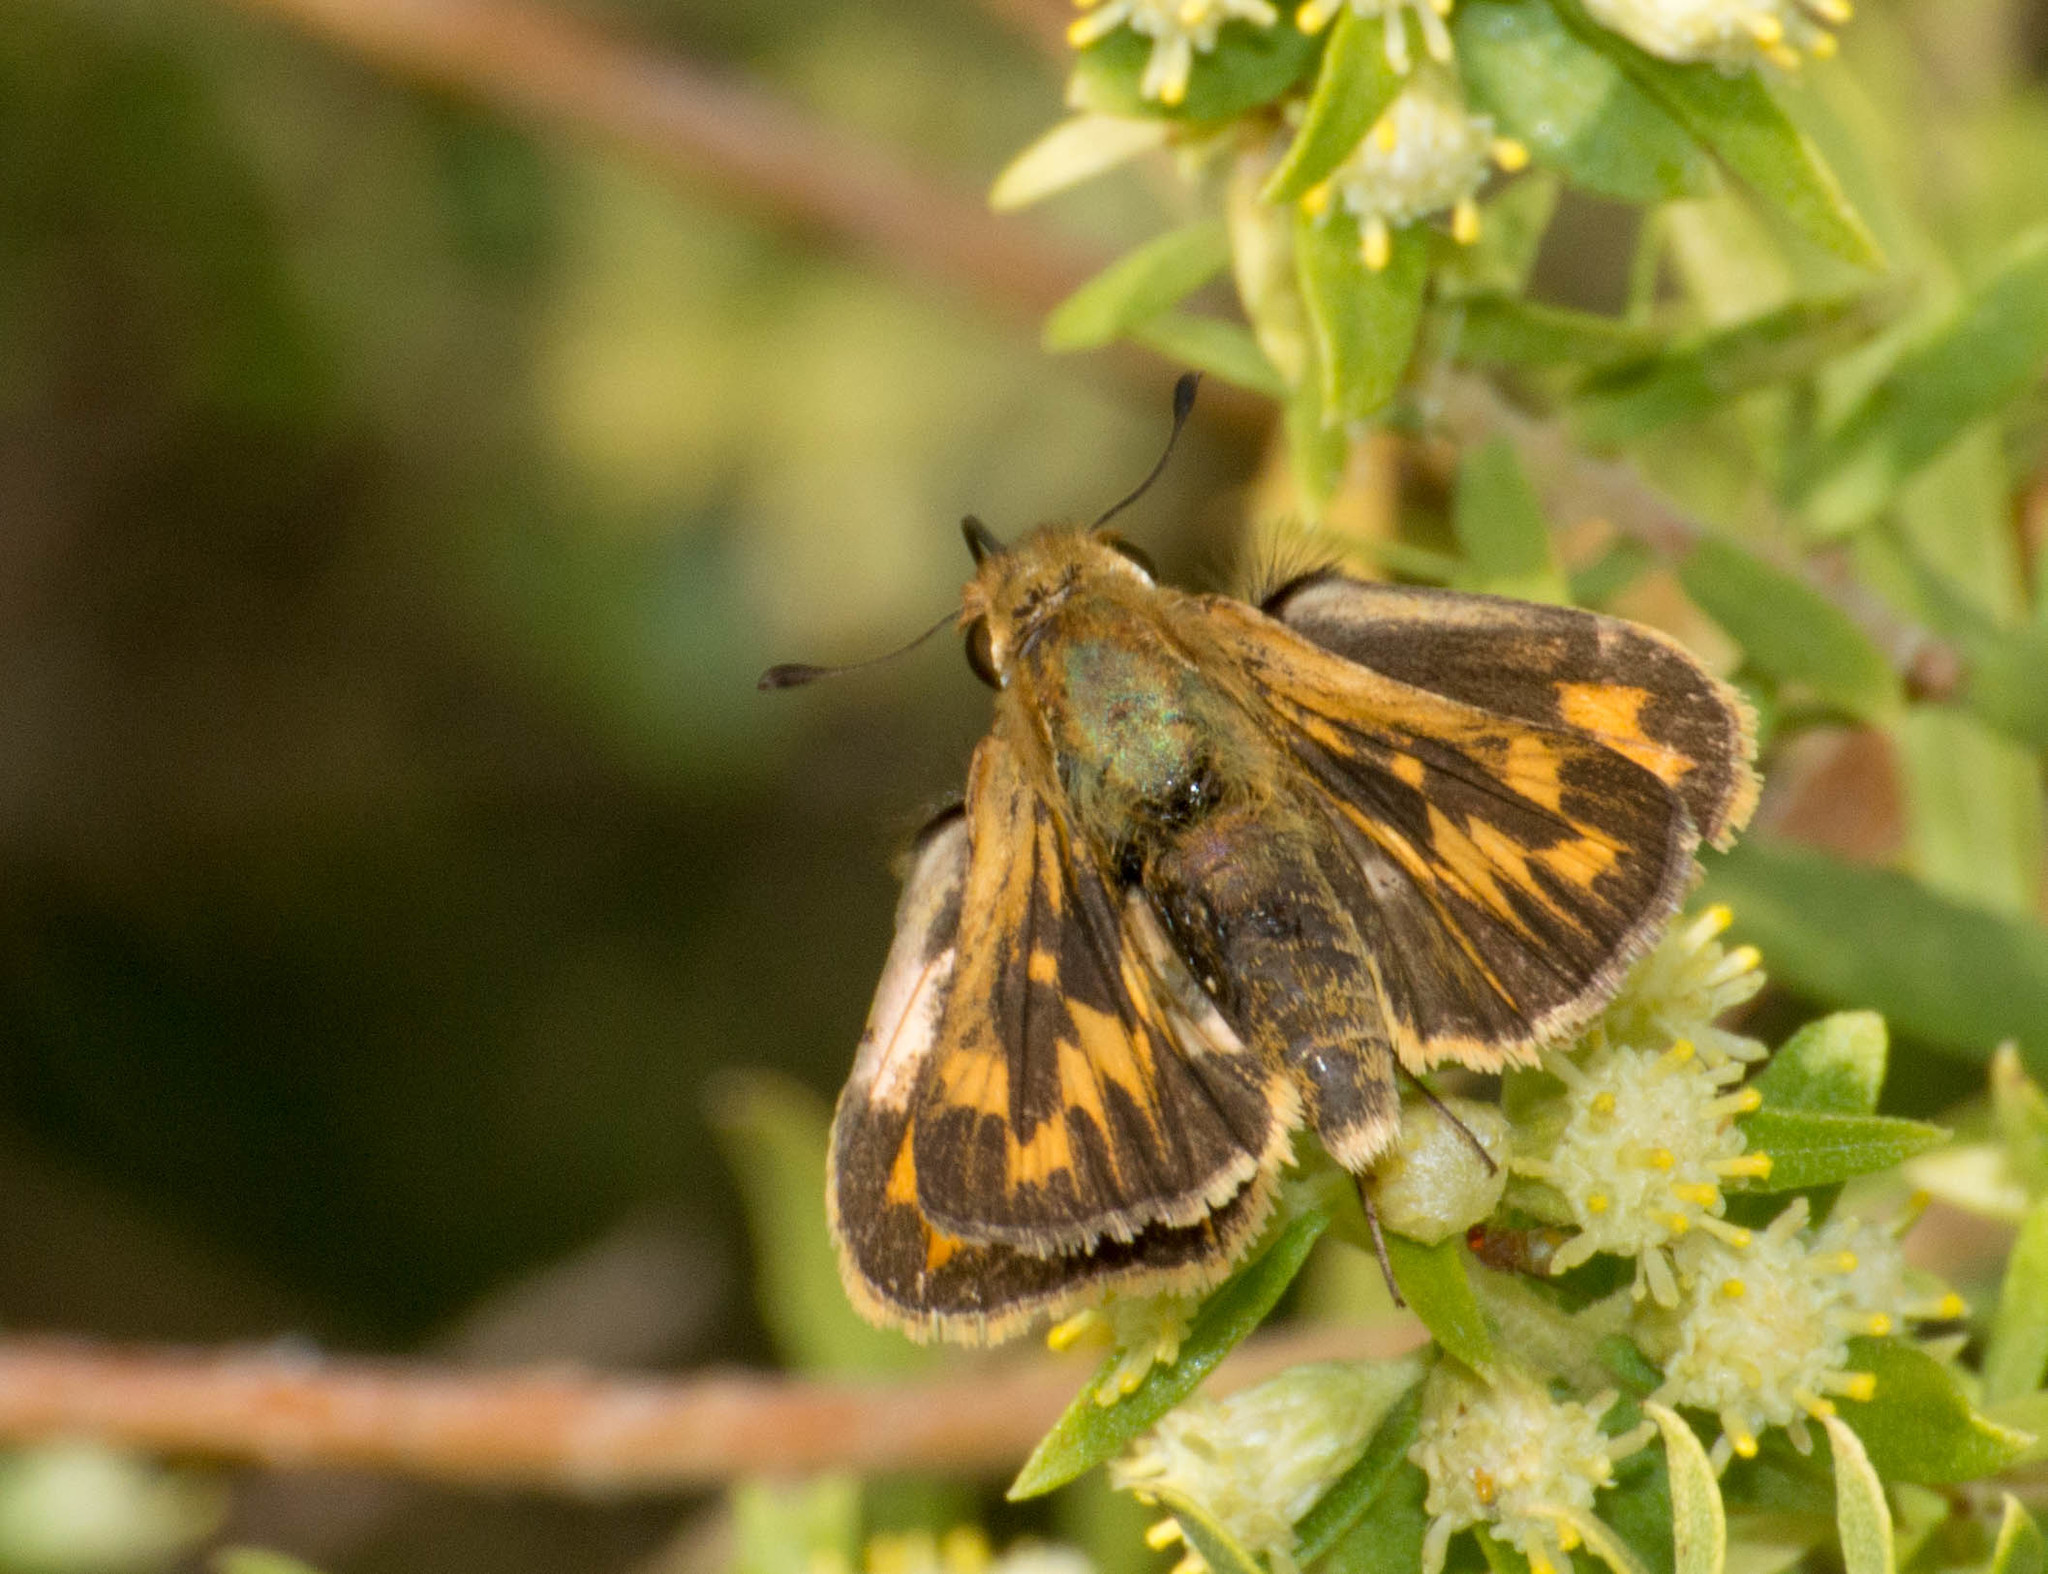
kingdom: Animalia
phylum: Arthropoda
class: Insecta
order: Lepidoptera
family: Hesperiidae
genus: Hylephila
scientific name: Hylephila phyleus
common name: Fiery skipper
